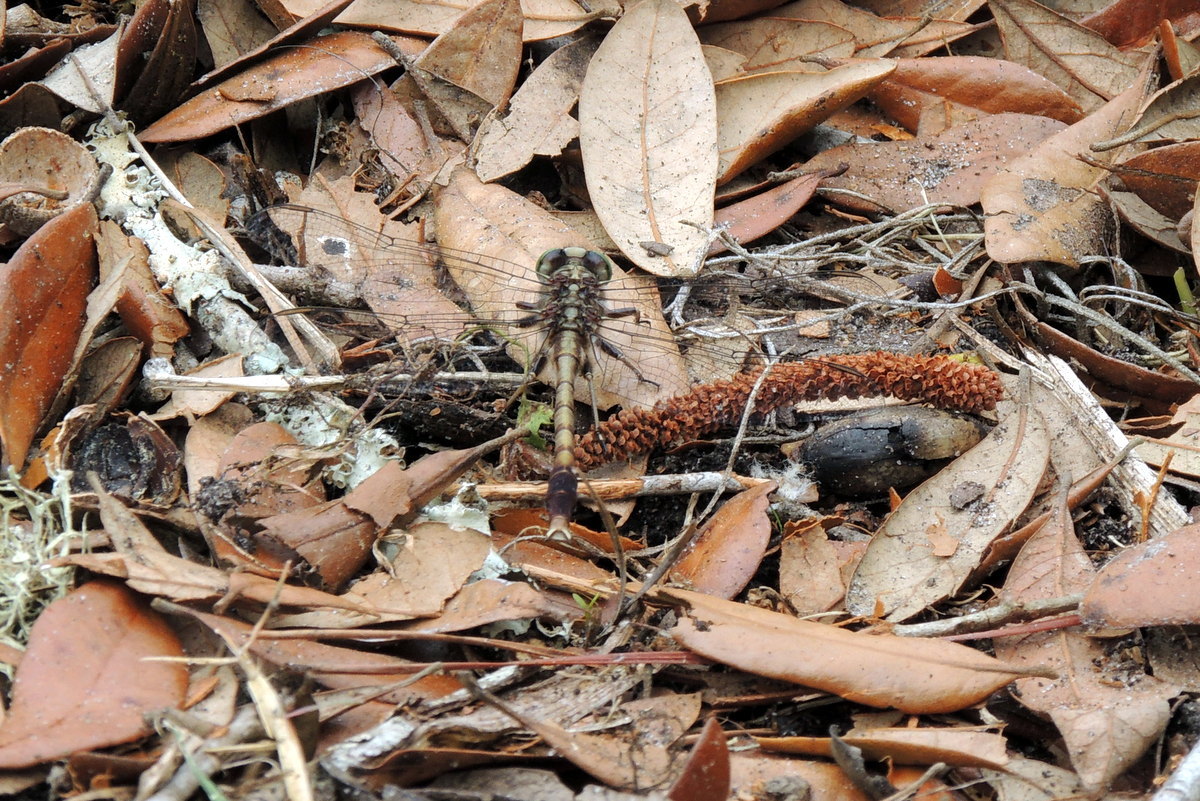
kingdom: Animalia
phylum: Arthropoda
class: Insecta
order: Odonata
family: Gomphidae
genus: Arigomphus
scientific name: Arigomphus pallidus
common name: Gray-green clubtail
